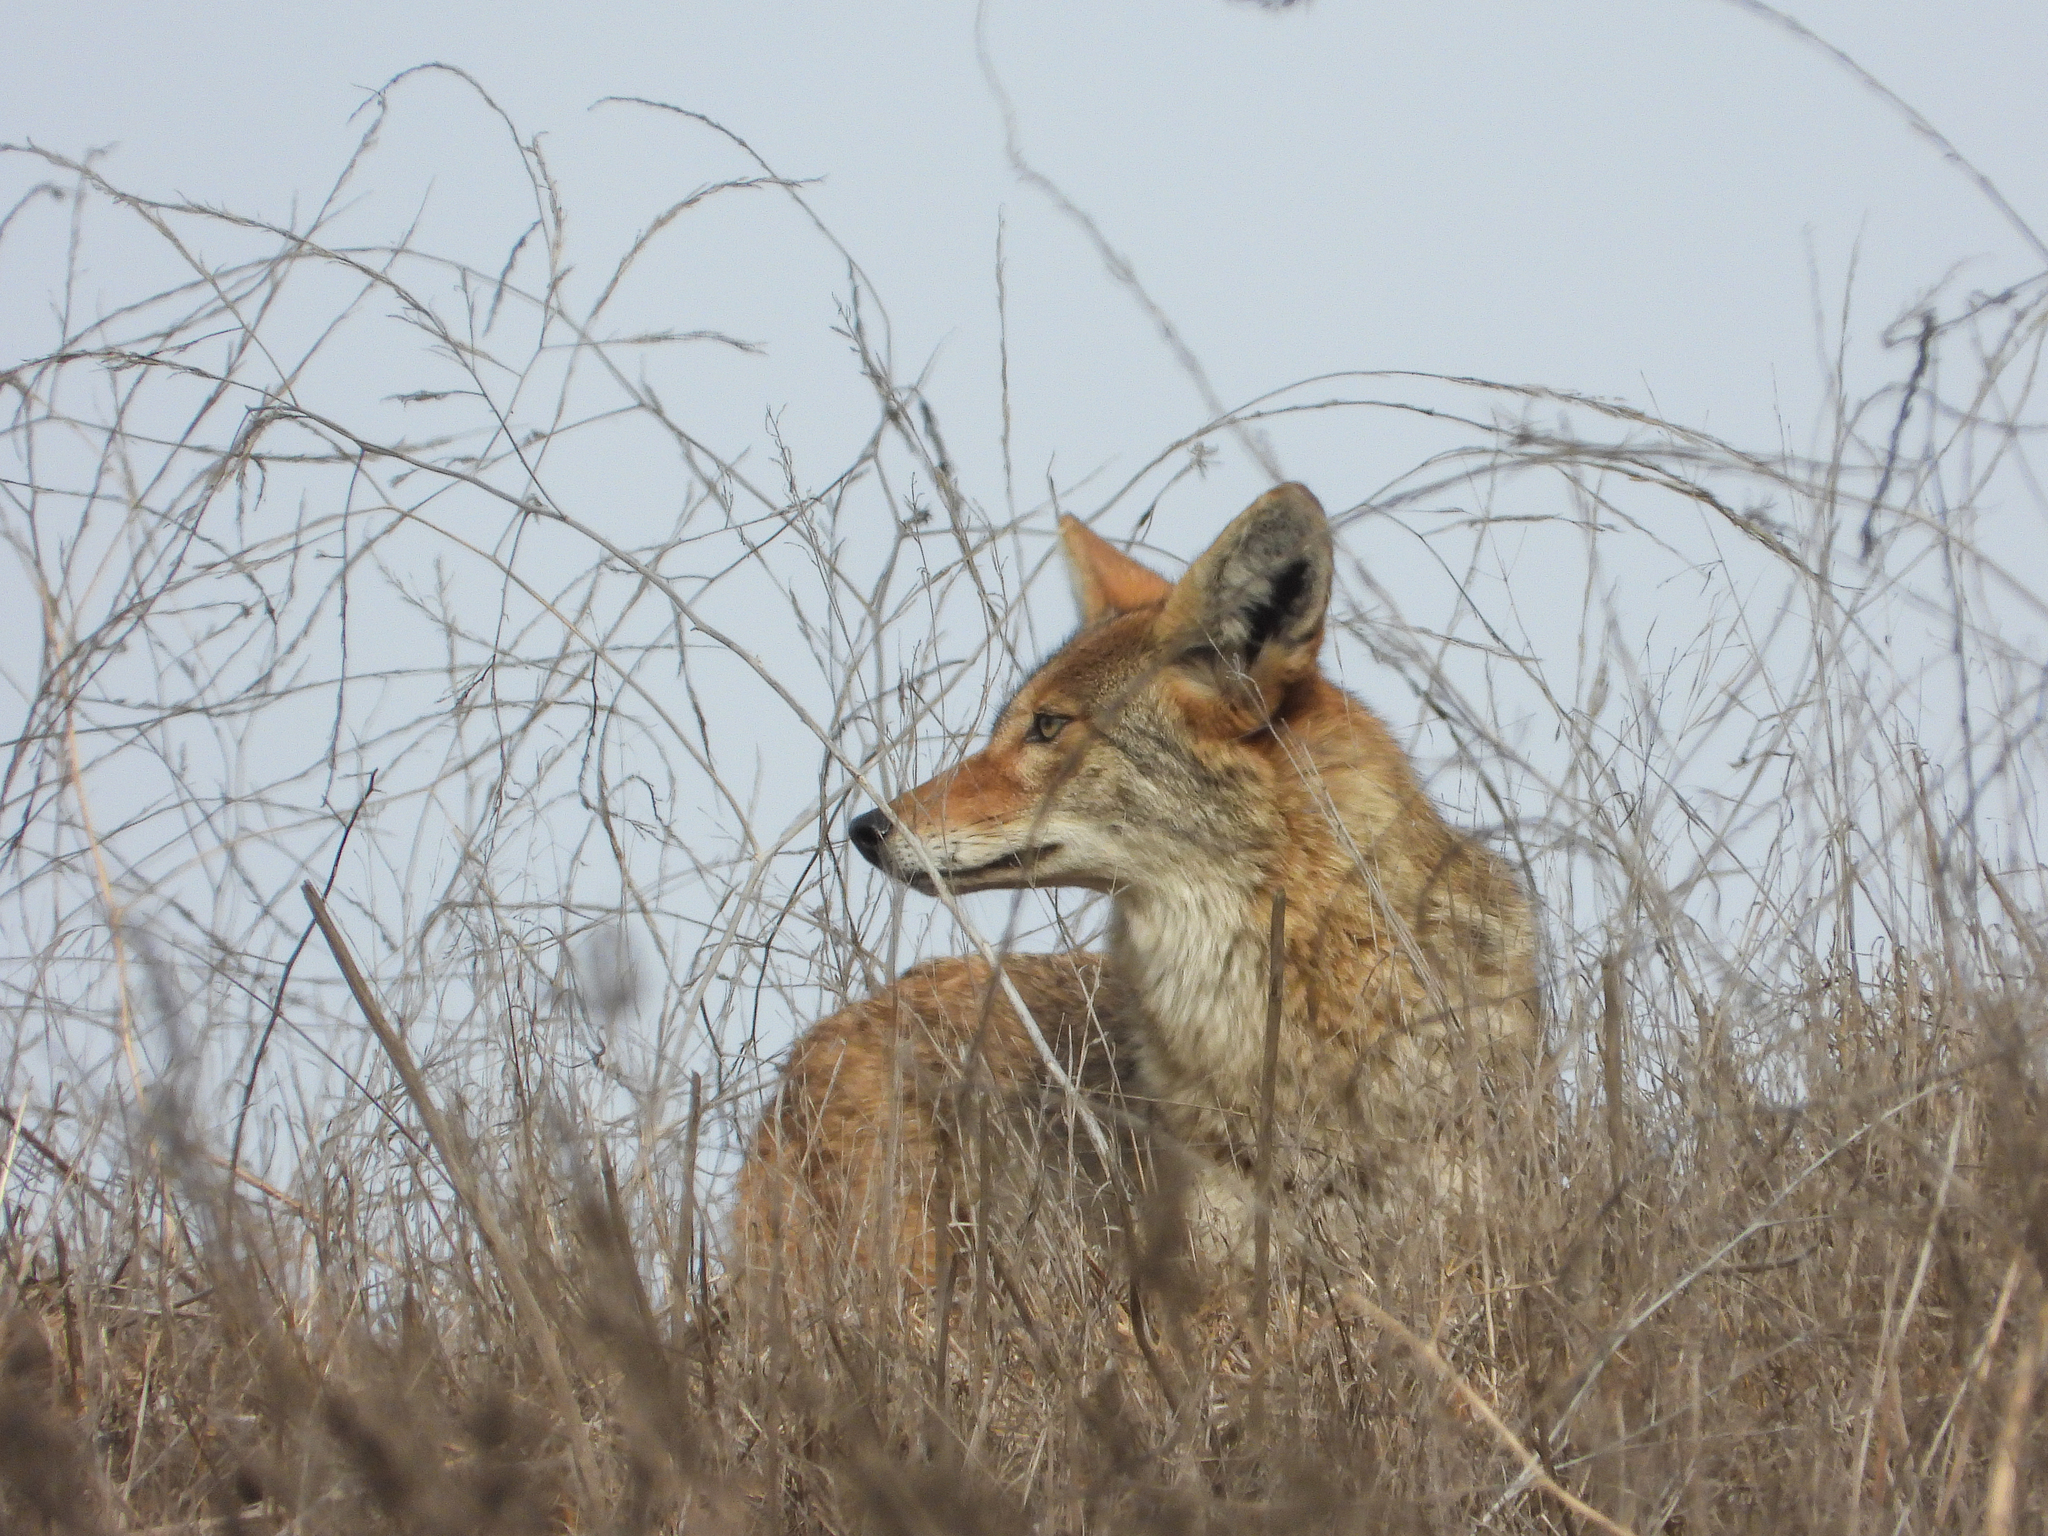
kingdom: Animalia
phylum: Chordata
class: Mammalia
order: Carnivora
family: Canidae
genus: Canis
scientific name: Canis latrans
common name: Coyote
